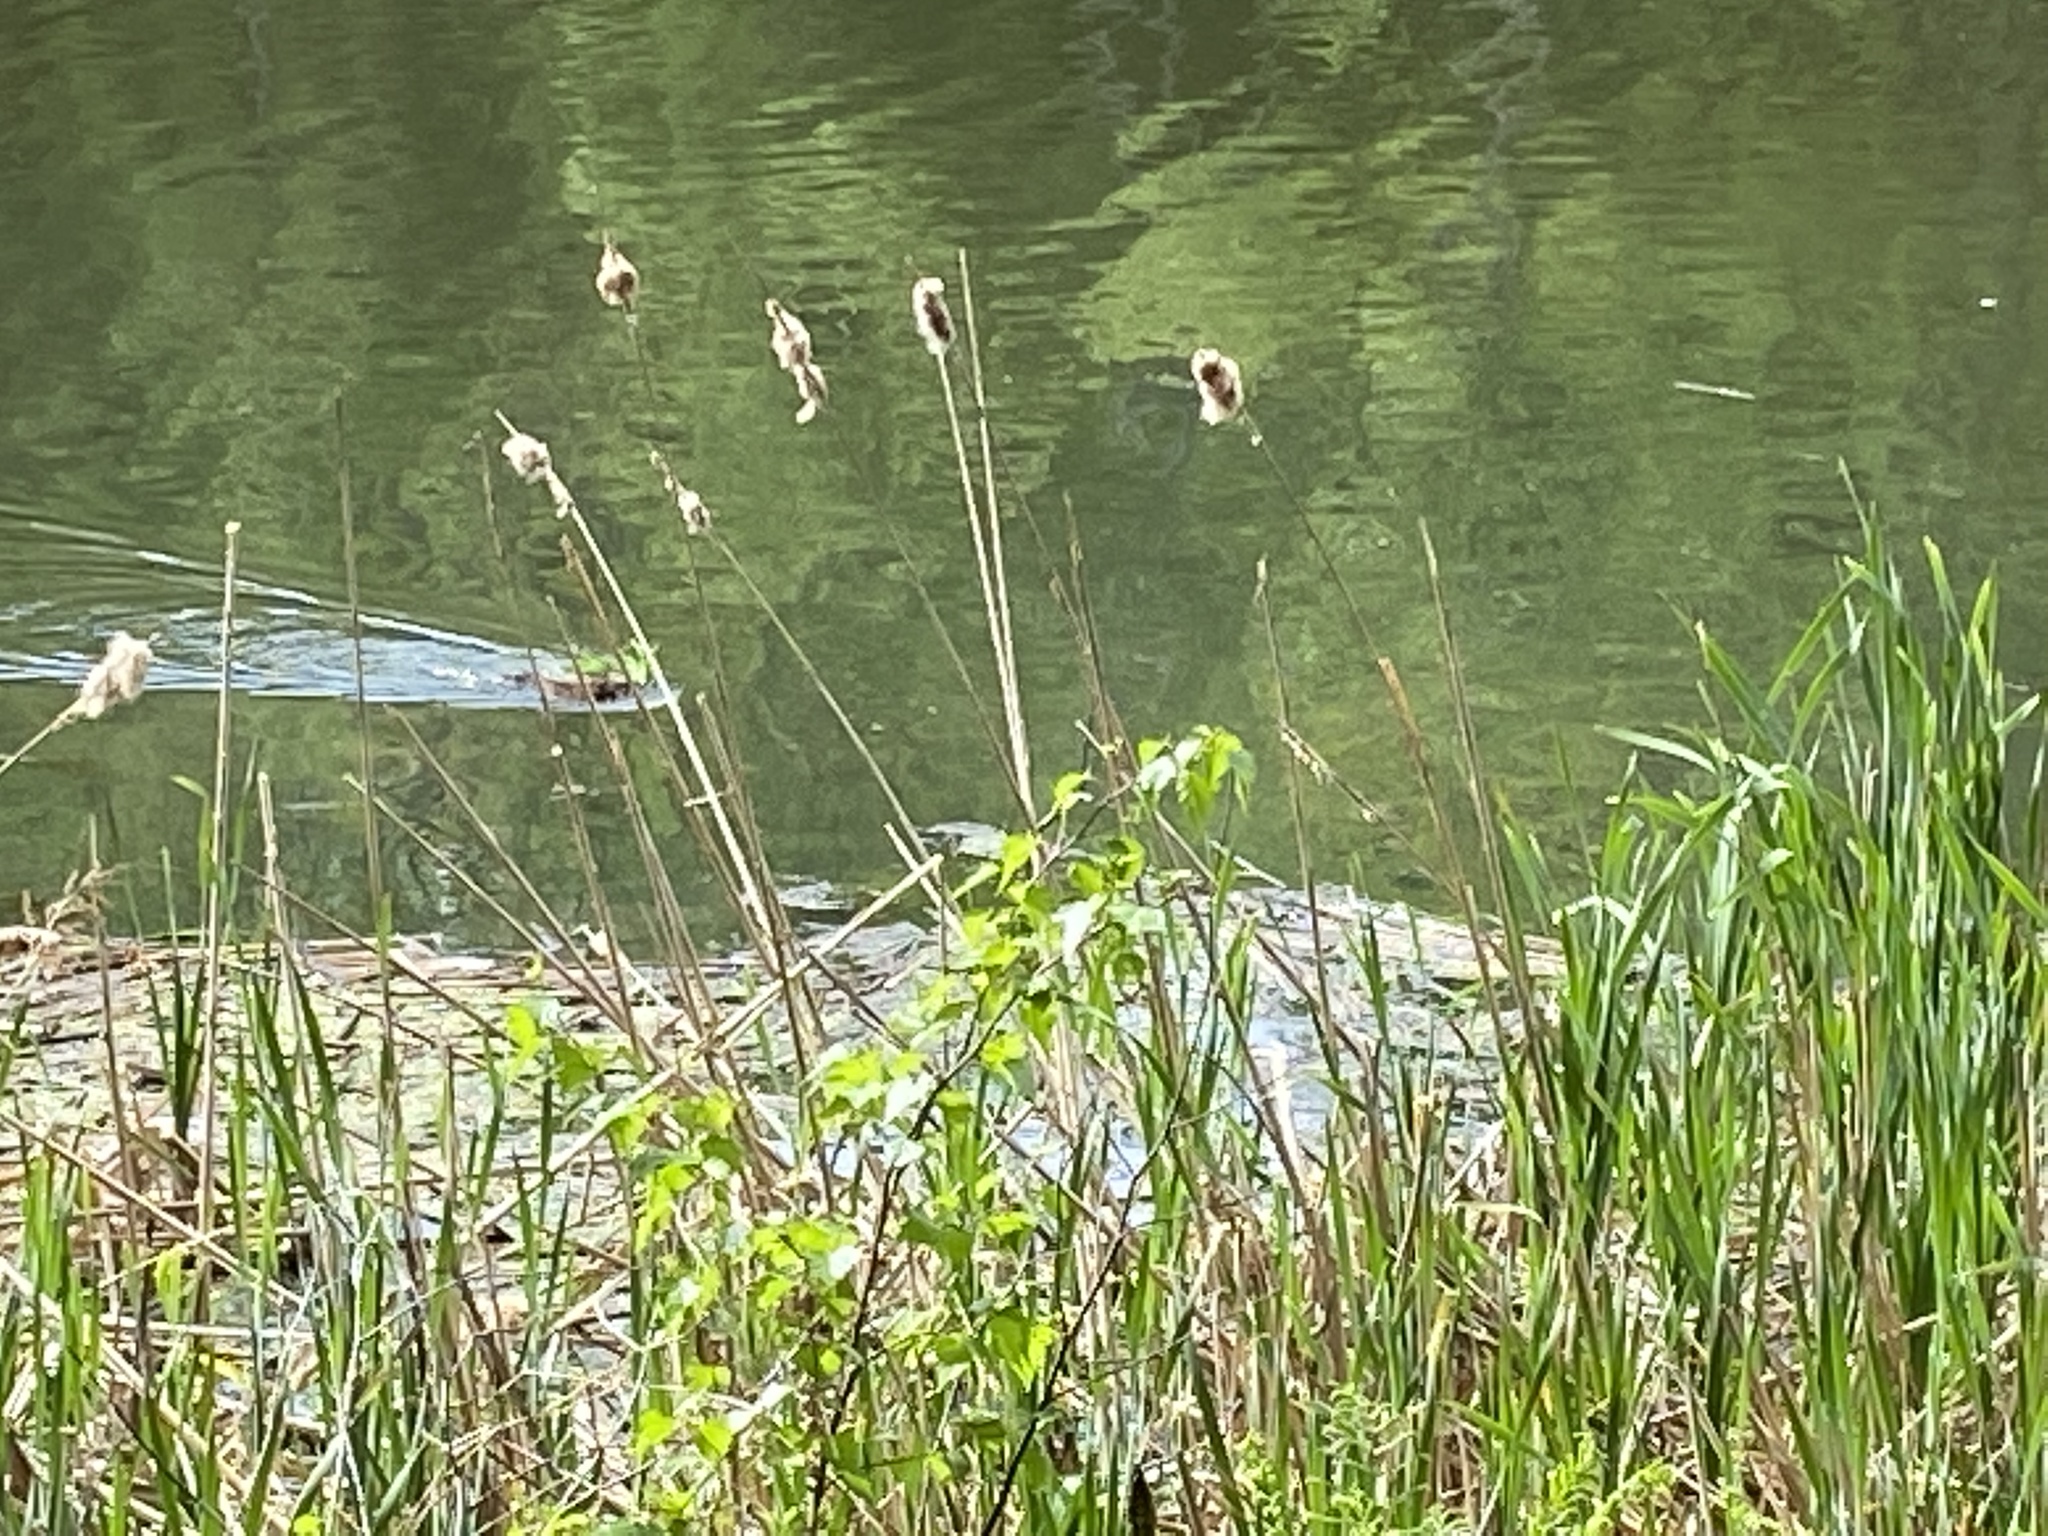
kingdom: Animalia
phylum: Chordata
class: Mammalia
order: Rodentia
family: Cricetidae
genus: Ondatra
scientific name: Ondatra zibethicus
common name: Muskrat
